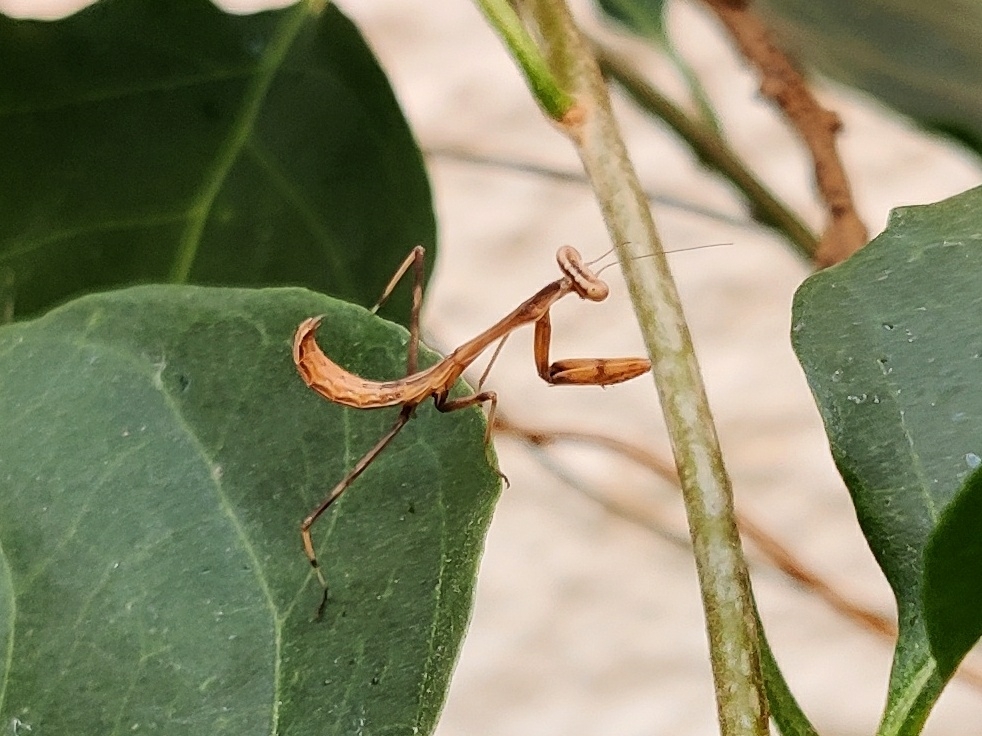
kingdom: Animalia
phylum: Arthropoda
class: Insecta
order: Mantodea
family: Mantidae
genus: Hierodula
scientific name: Hierodula membranacea
